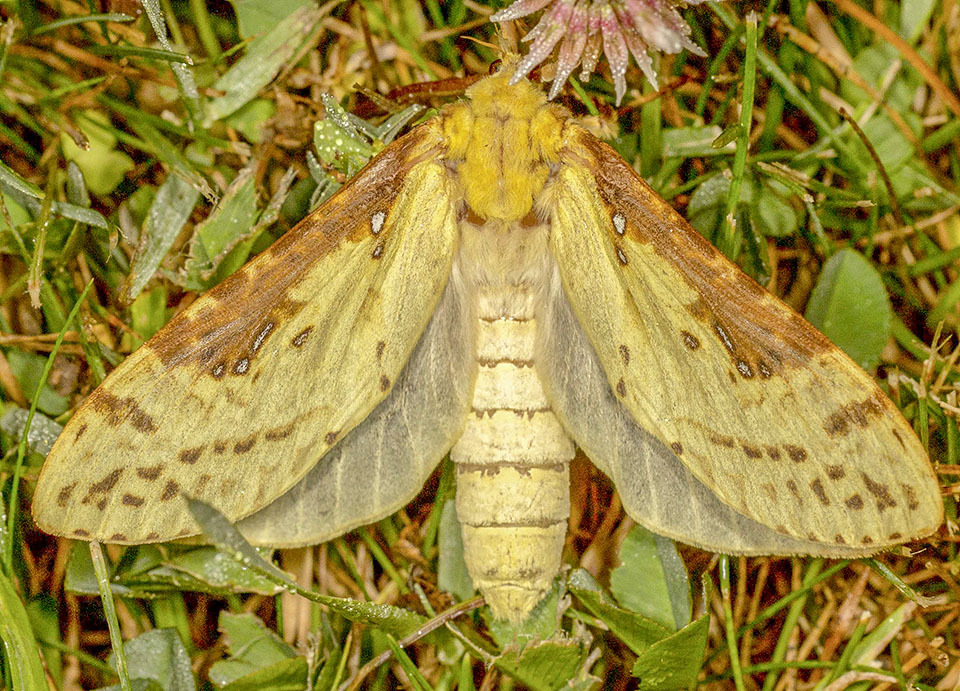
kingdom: Animalia
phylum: Arthropoda
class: Insecta
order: Lepidoptera
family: Hepialidae
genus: Sthenopis
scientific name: Sthenopis thule
